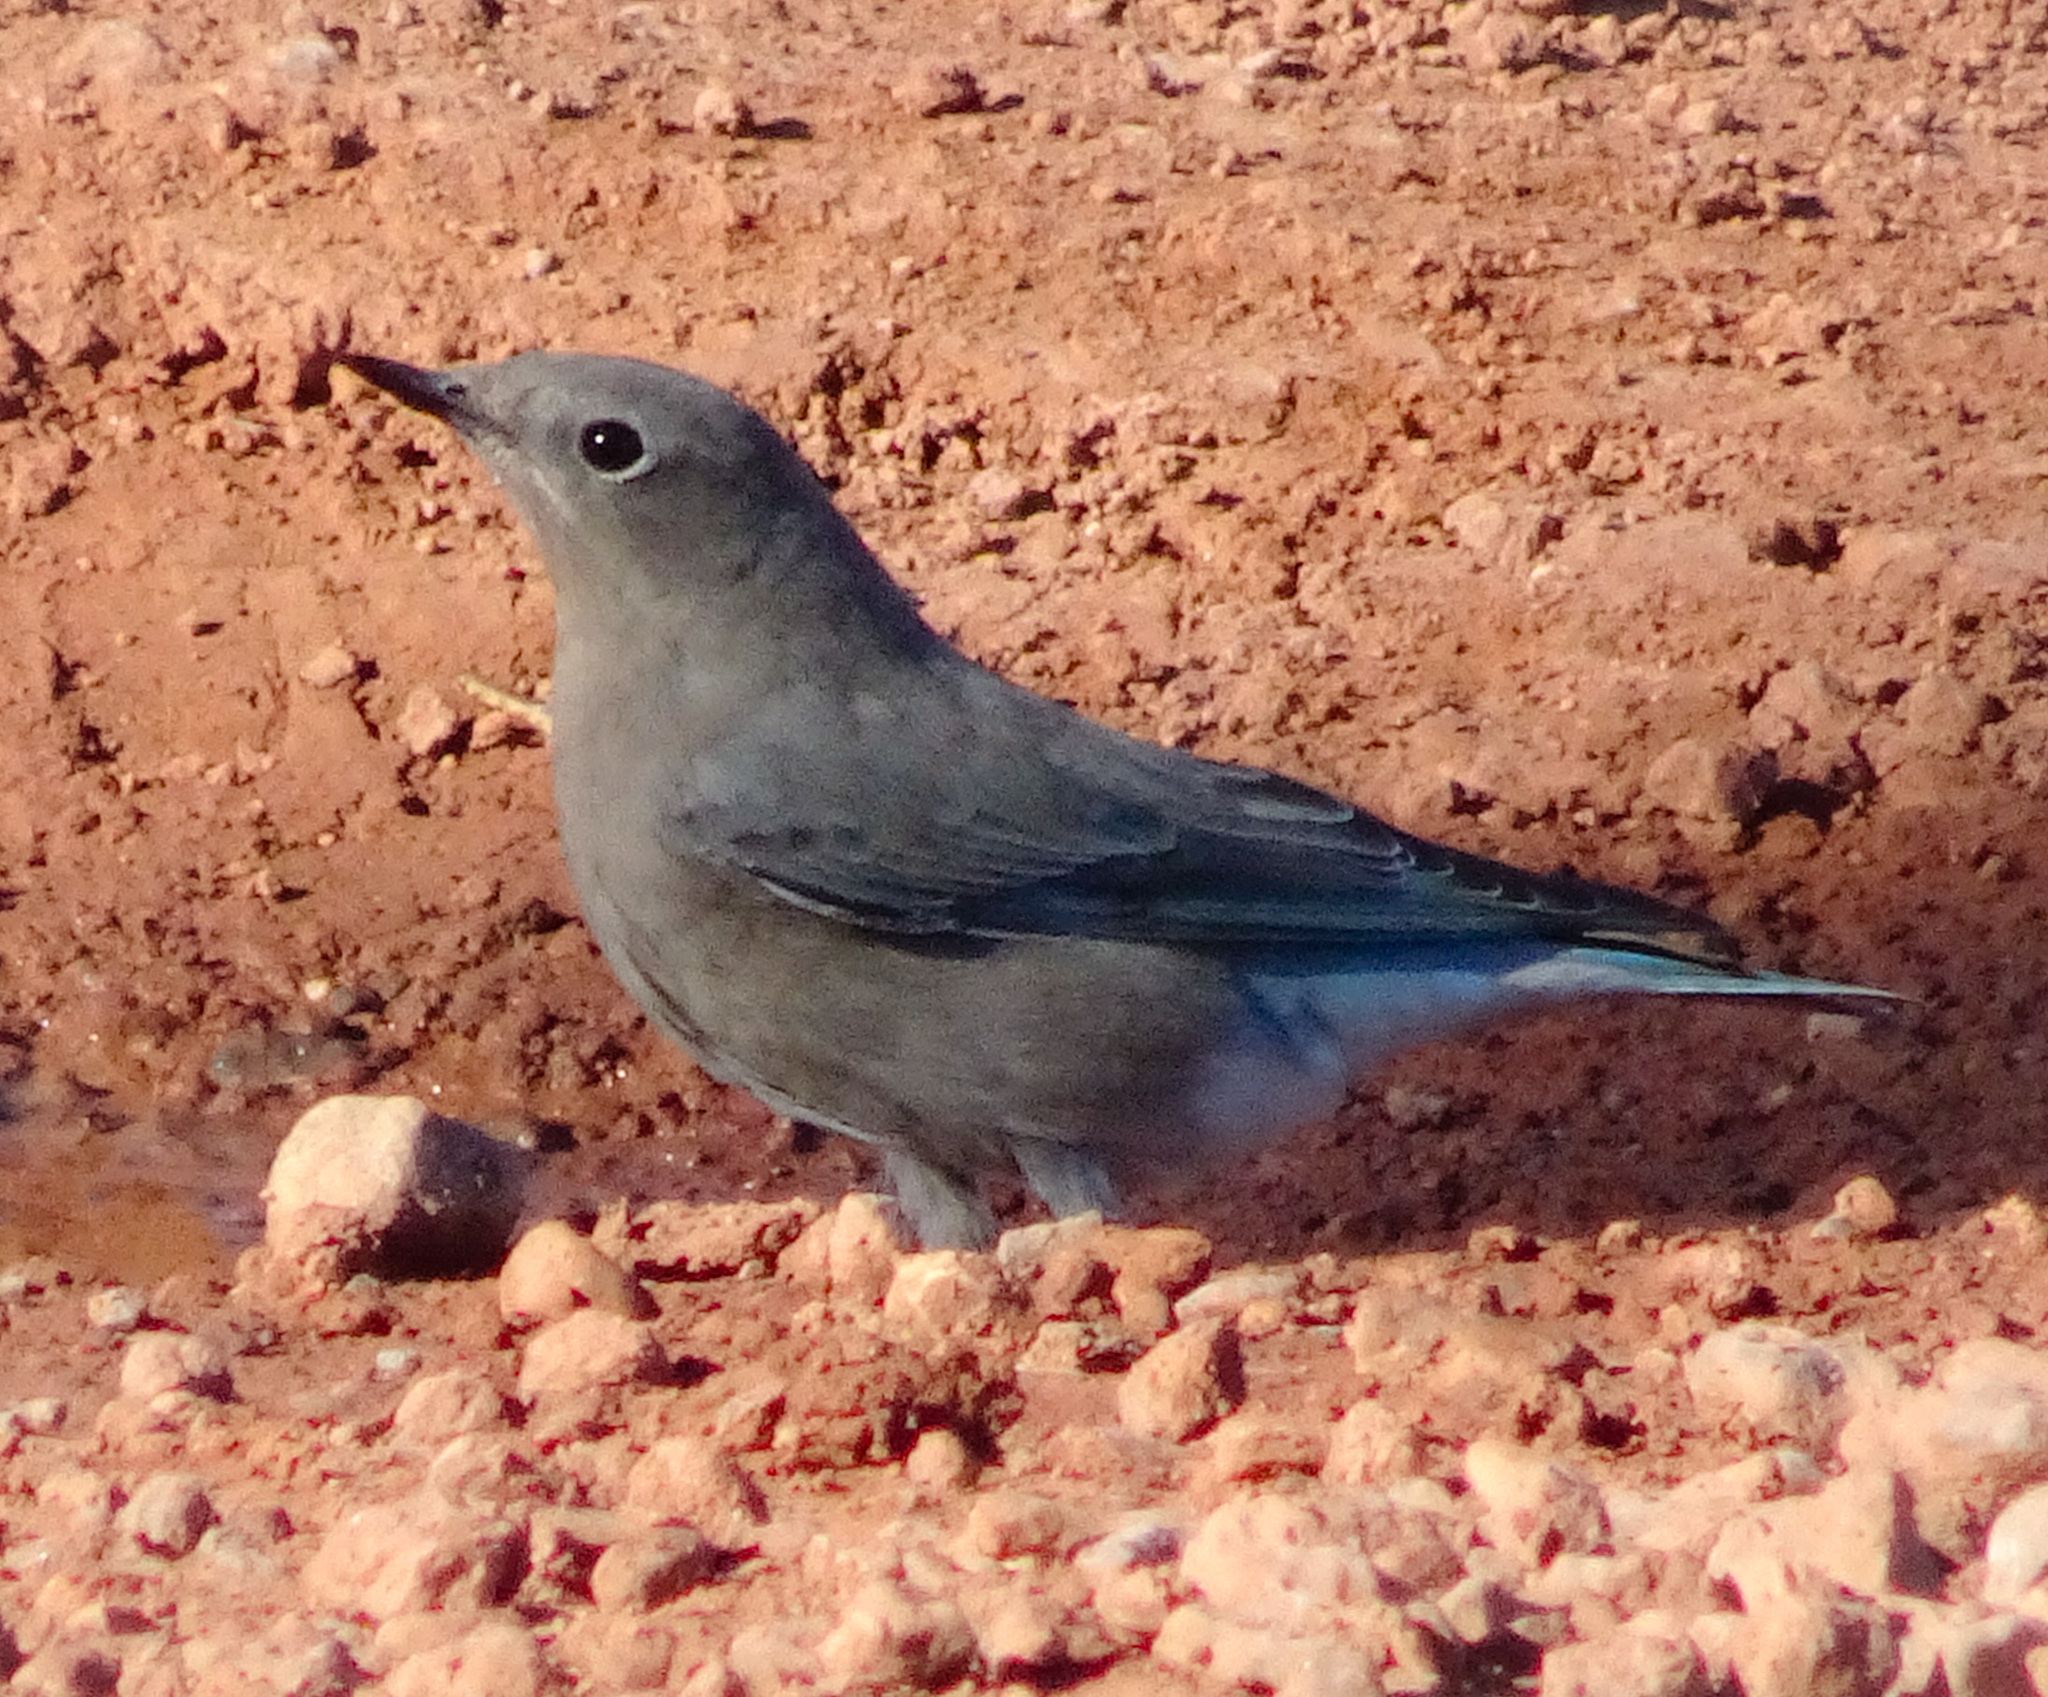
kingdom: Animalia
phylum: Chordata
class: Aves
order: Passeriformes
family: Turdidae
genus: Sialia
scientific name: Sialia currucoides
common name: Mountain bluebird
